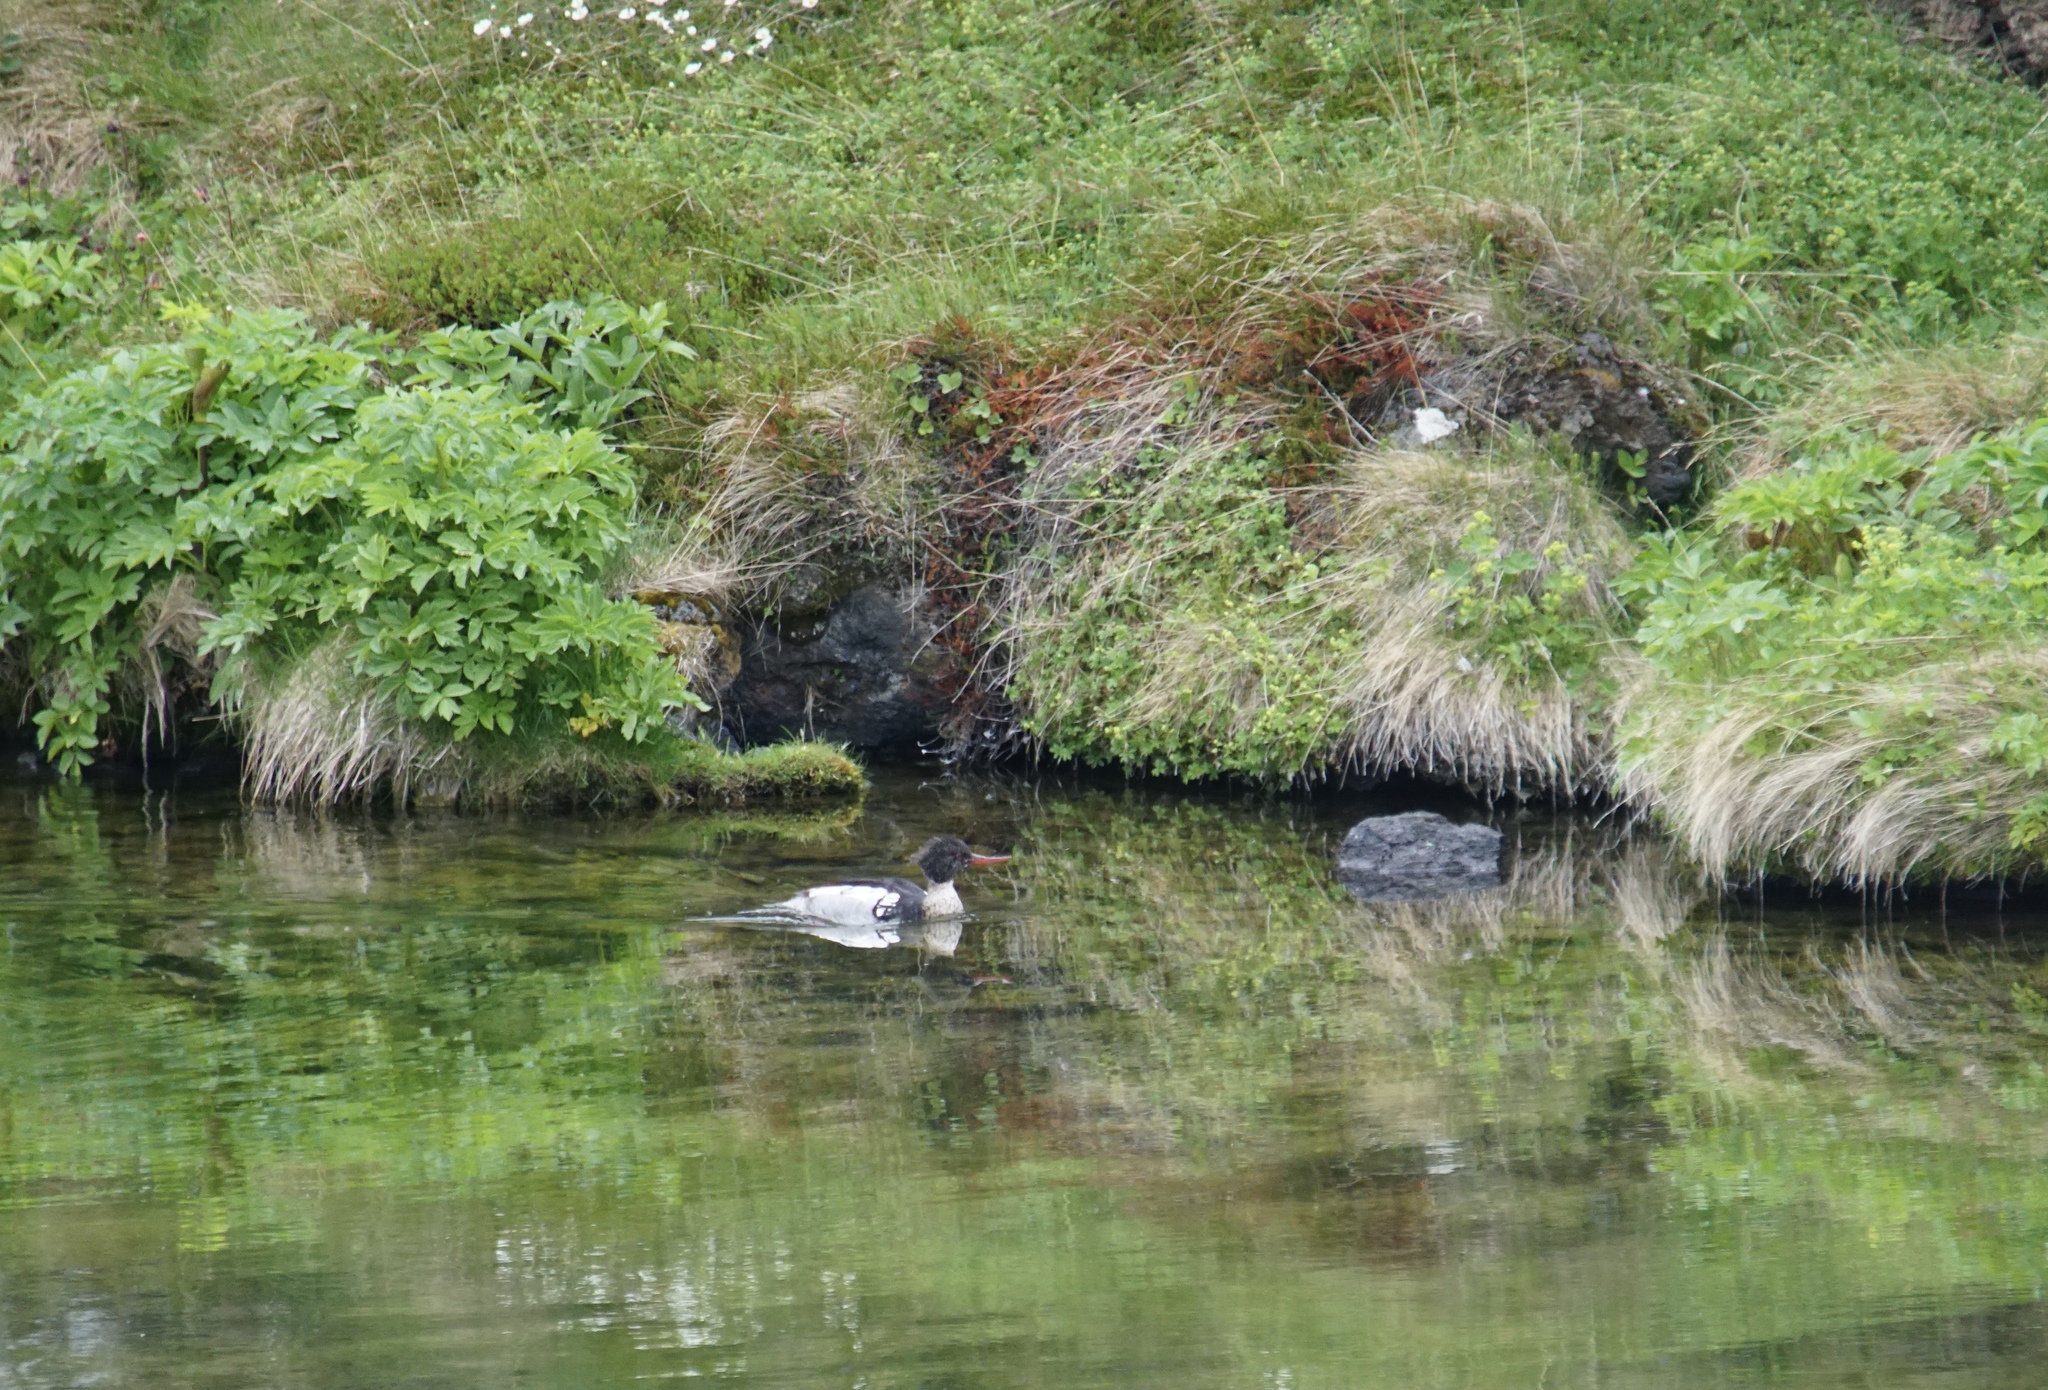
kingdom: Animalia
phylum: Chordata
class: Aves
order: Anseriformes
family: Anatidae
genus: Mergus
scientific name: Mergus serrator
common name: Red-breasted merganser
